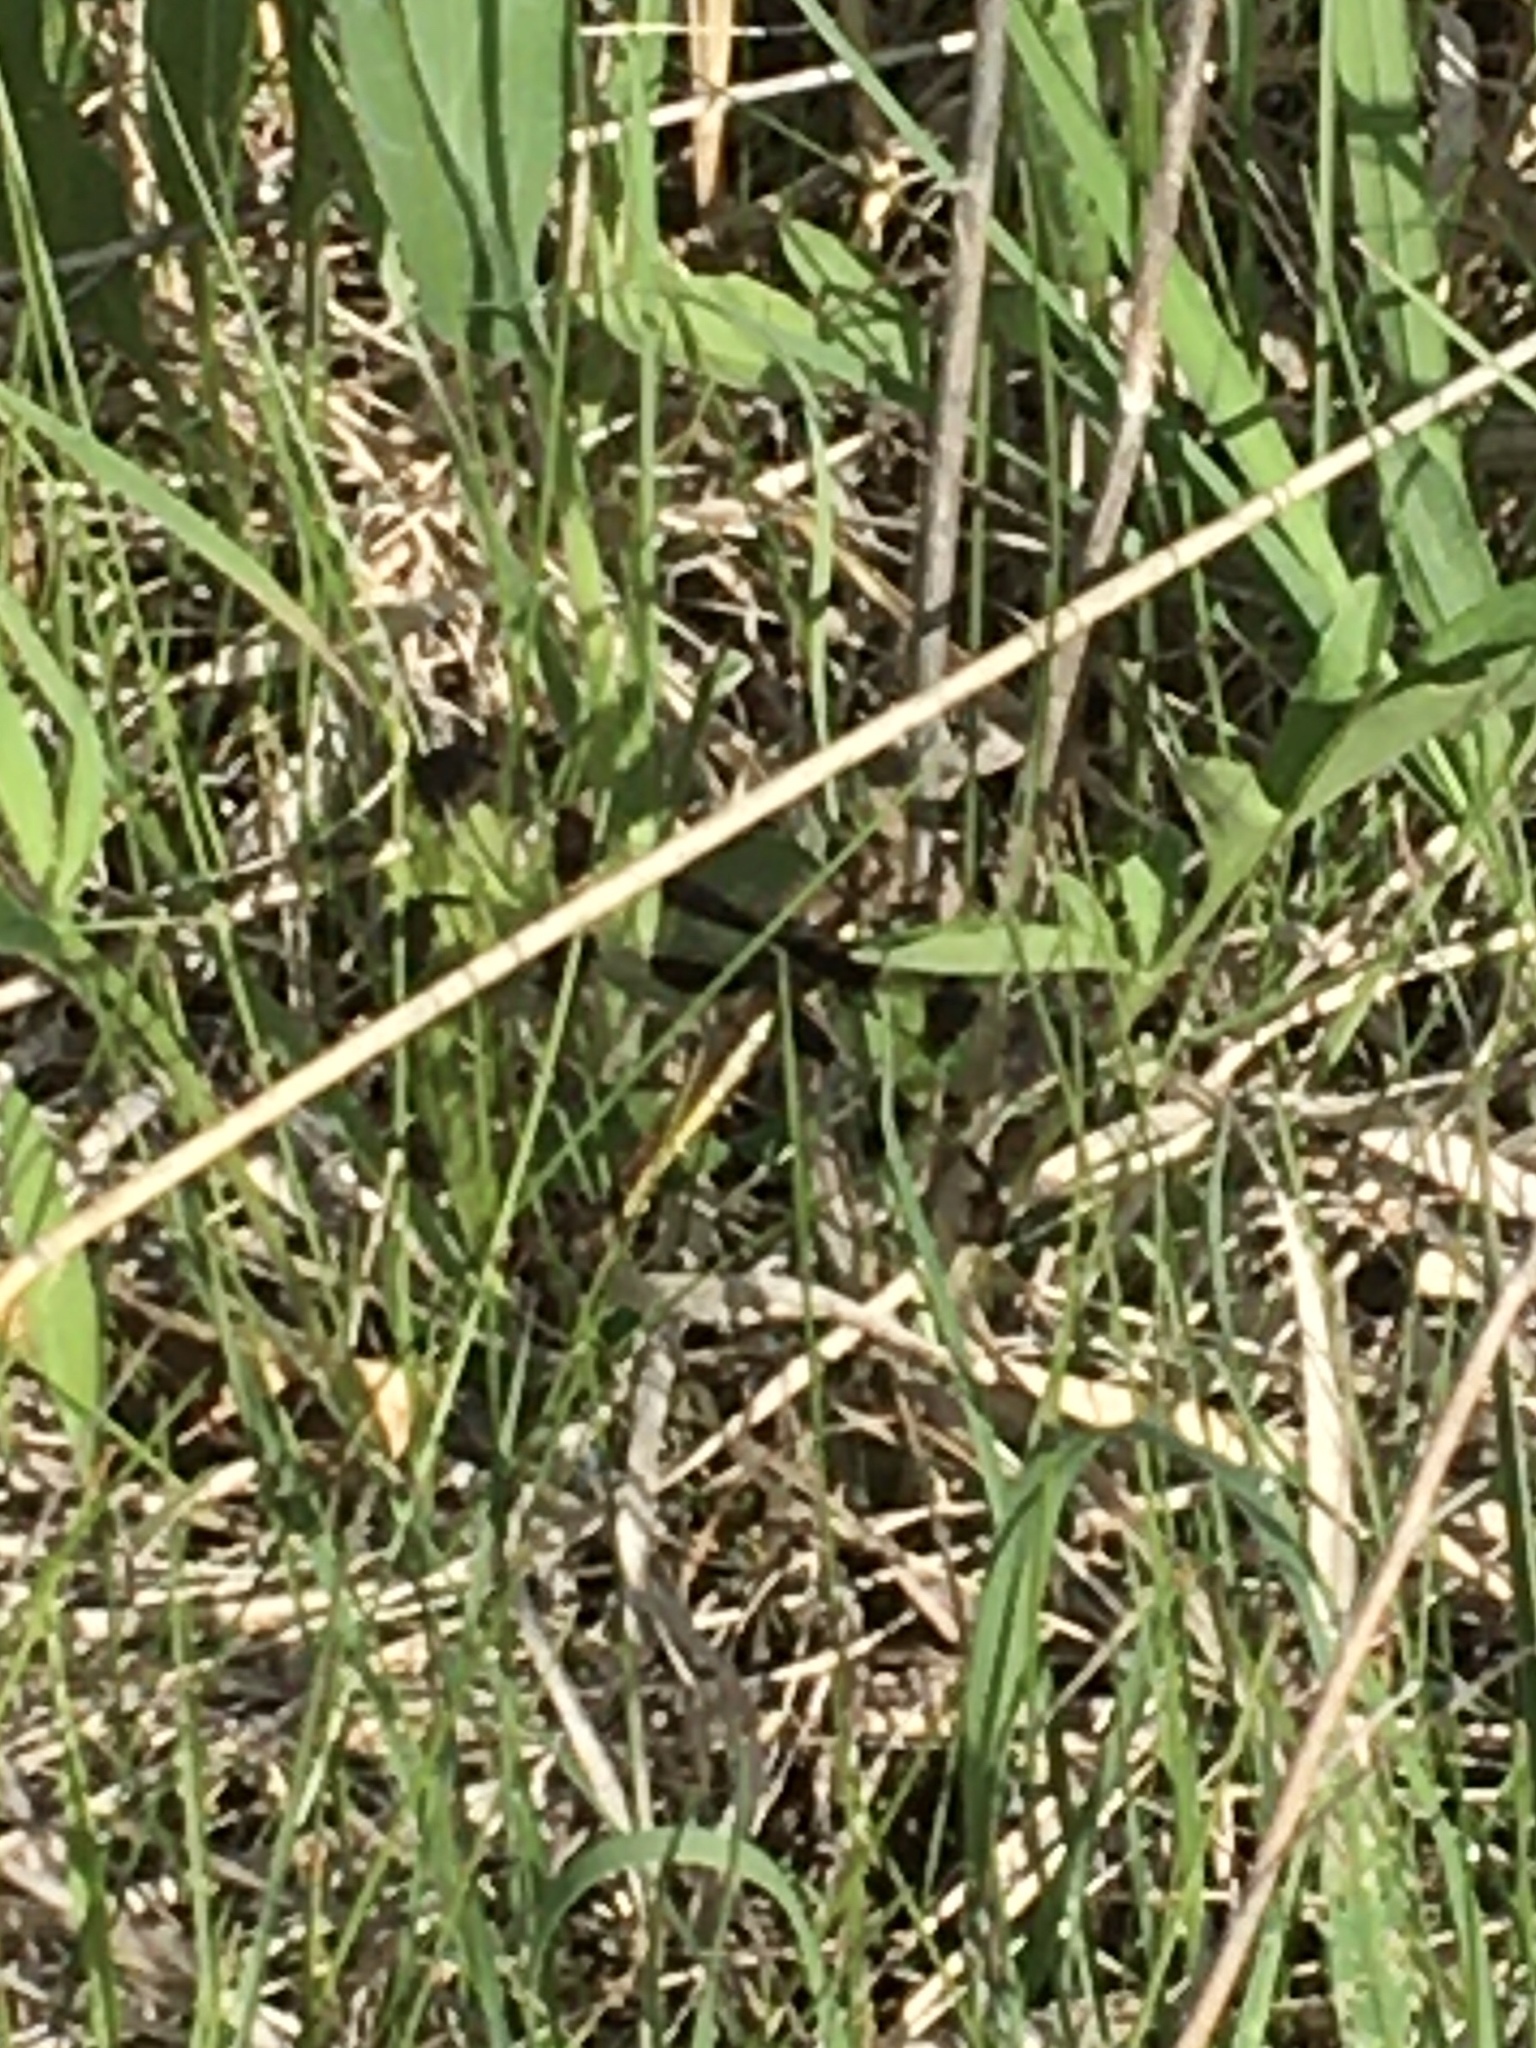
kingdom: Animalia
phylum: Arthropoda
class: Insecta
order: Odonata
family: Libellulidae
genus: Libellula
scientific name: Libellula pulchella
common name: Twelve-spotted skimmer
